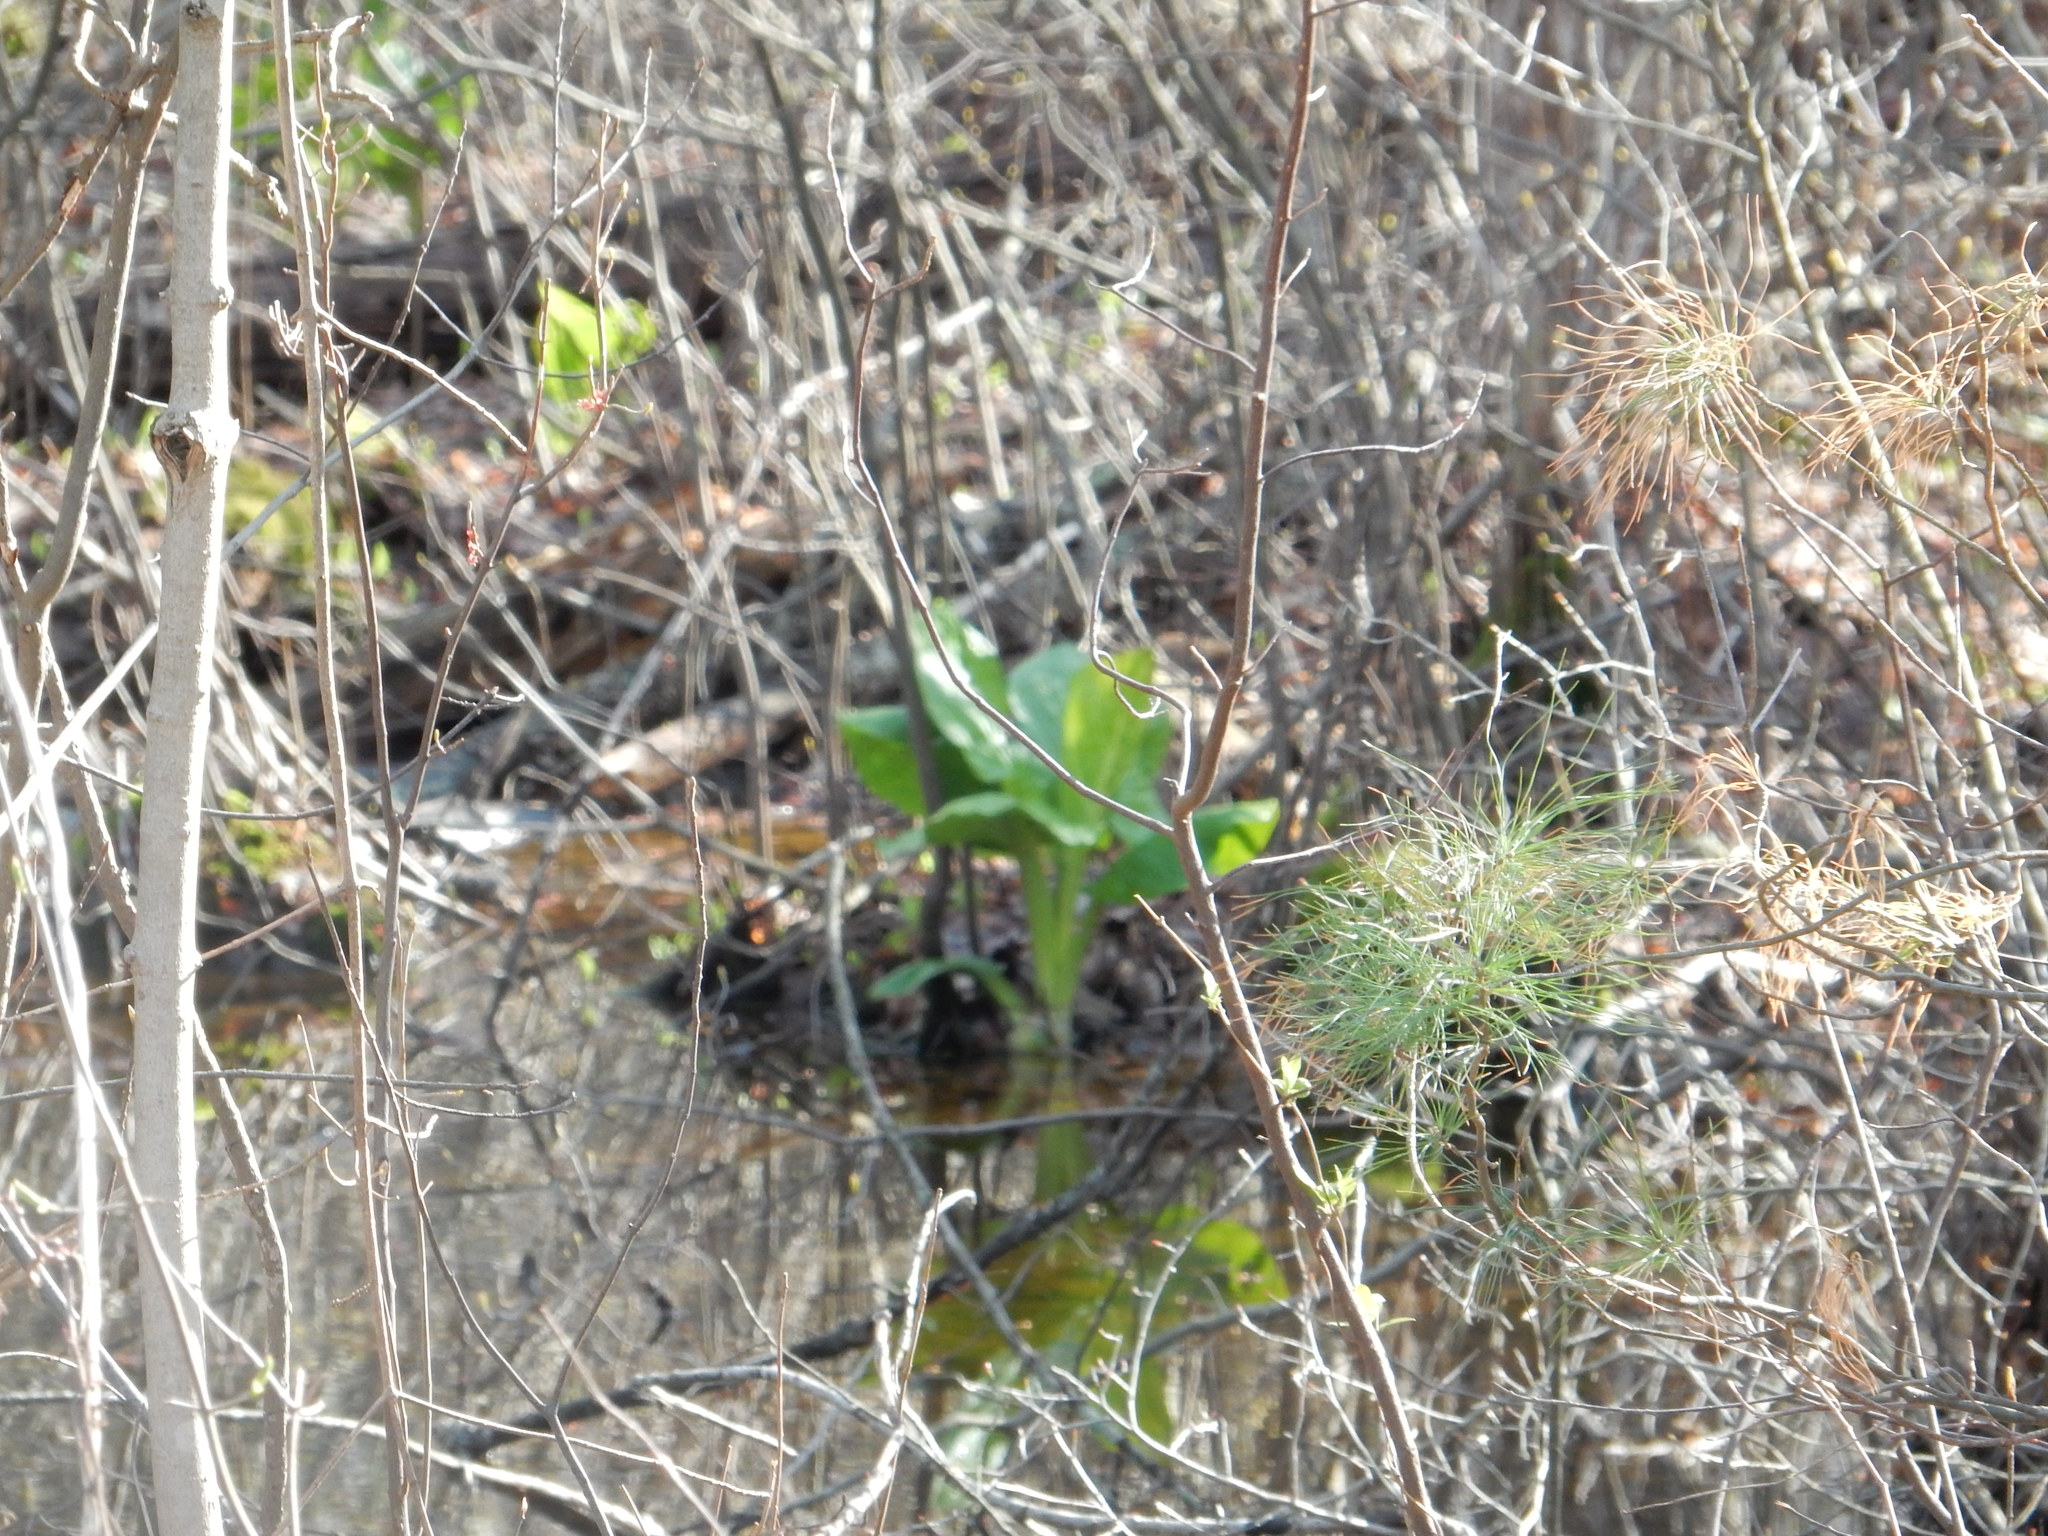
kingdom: Plantae
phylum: Tracheophyta
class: Liliopsida
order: Alismatales
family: Araceae
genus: Symplocarpus
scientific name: Symplocarpus foetidus
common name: Eastern skunk cabbage
